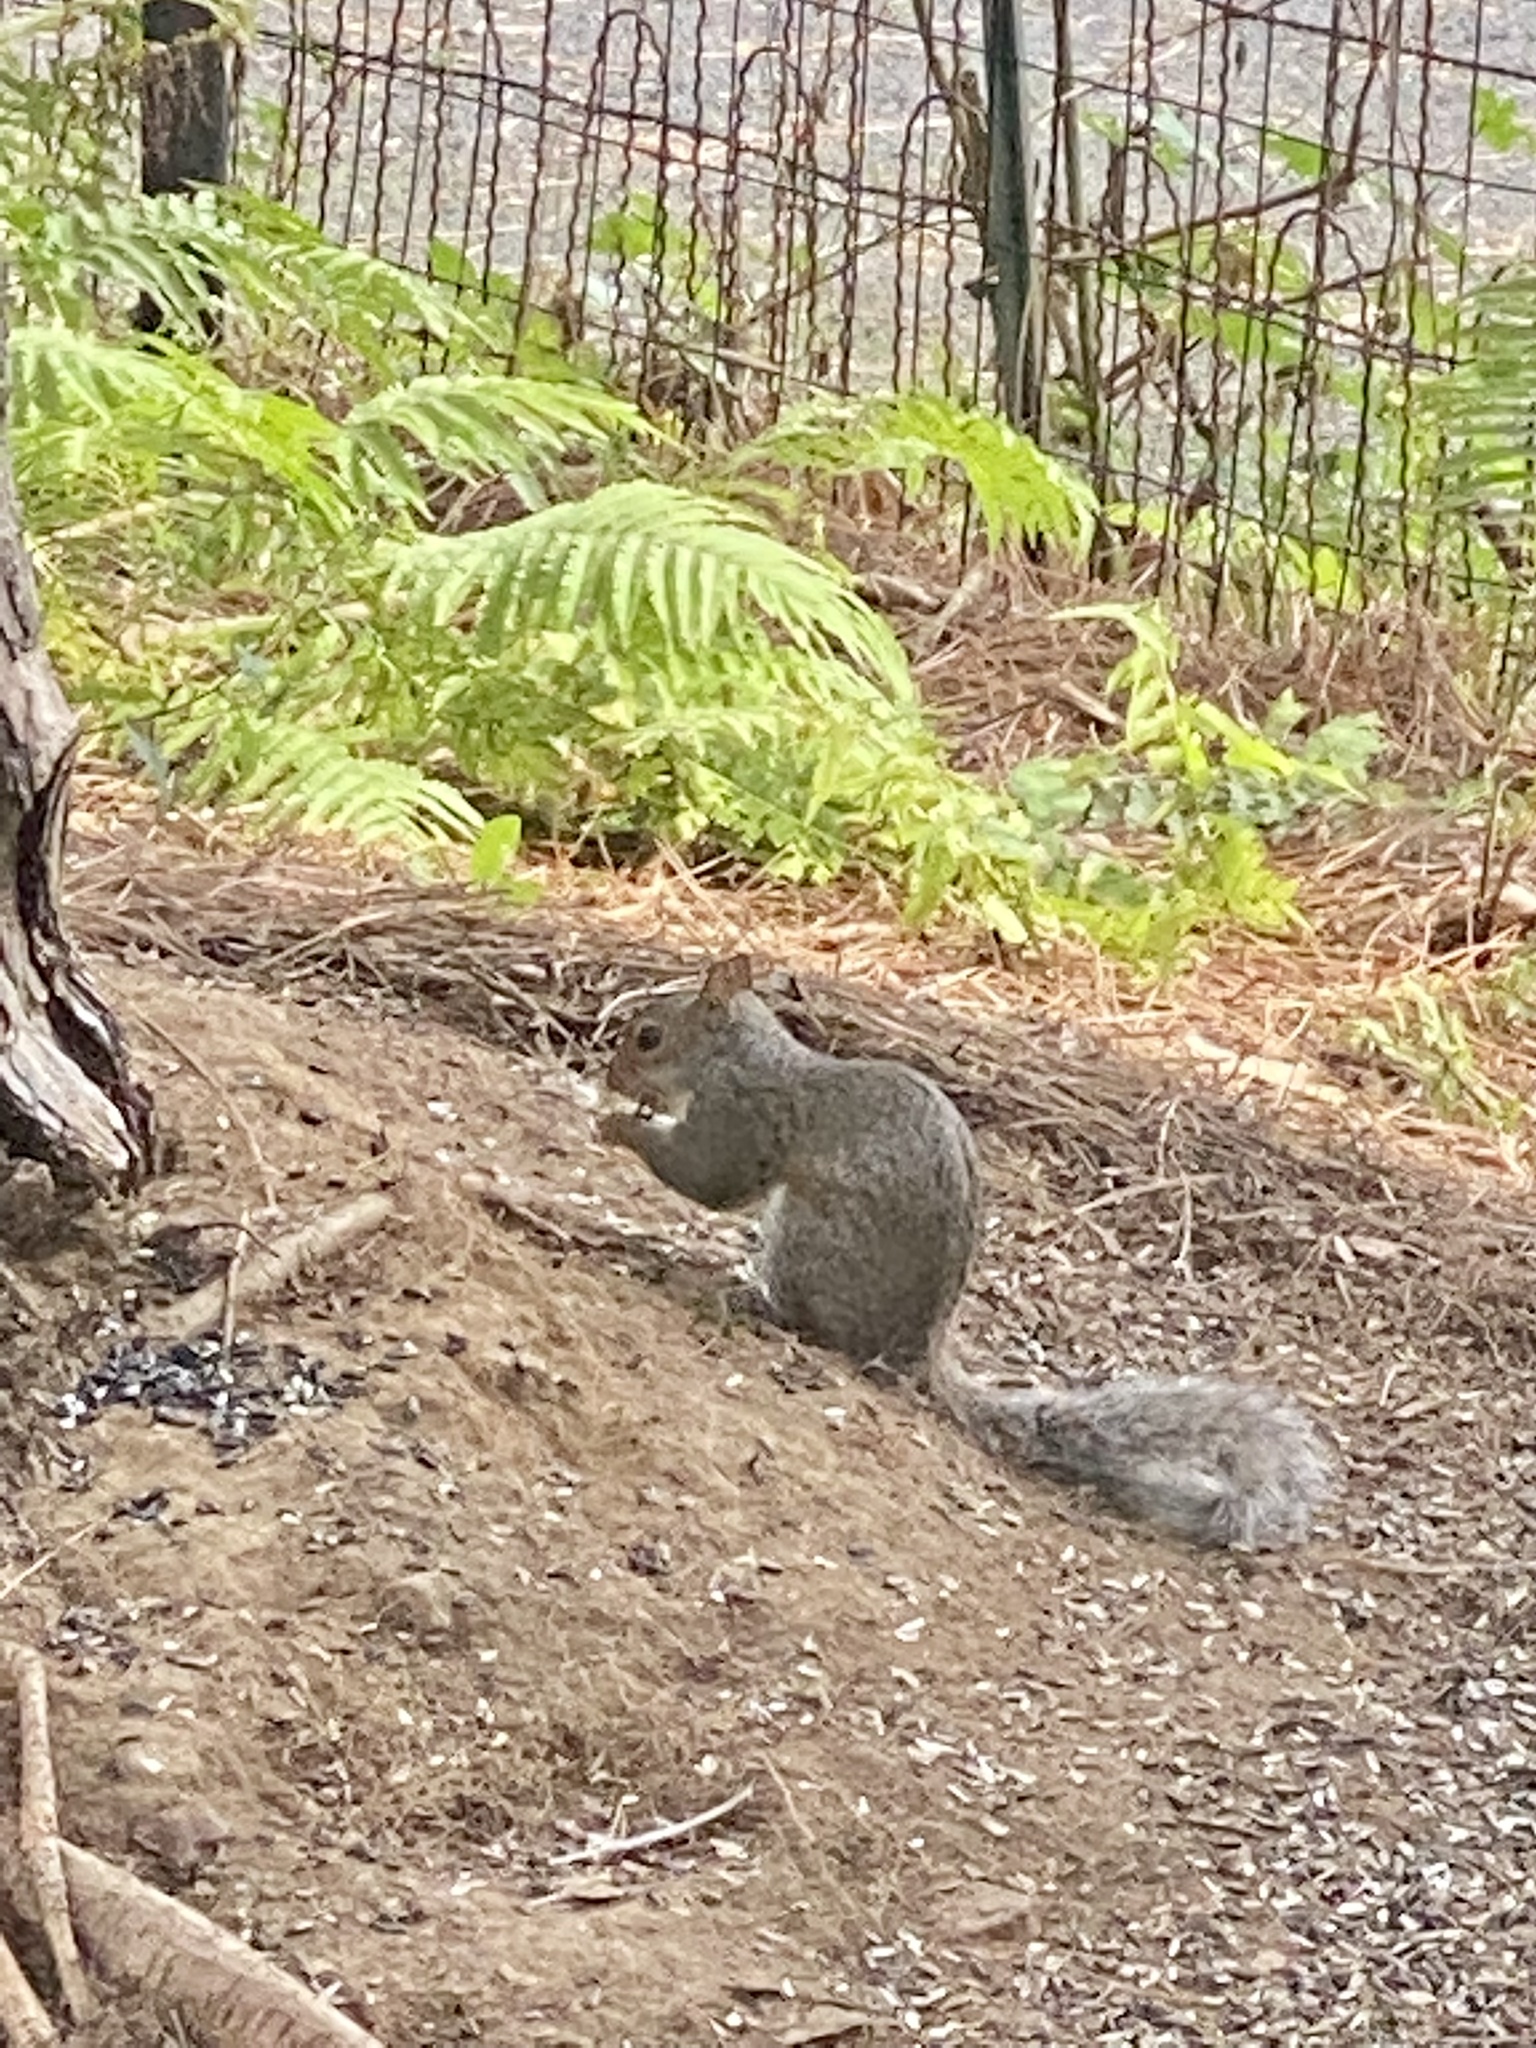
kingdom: Animalia
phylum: Chordata
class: Mammalia
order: Rodentia
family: Sciuridae
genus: Sciurus
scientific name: Sciurus carolinensis
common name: Eastern gray squirrel
